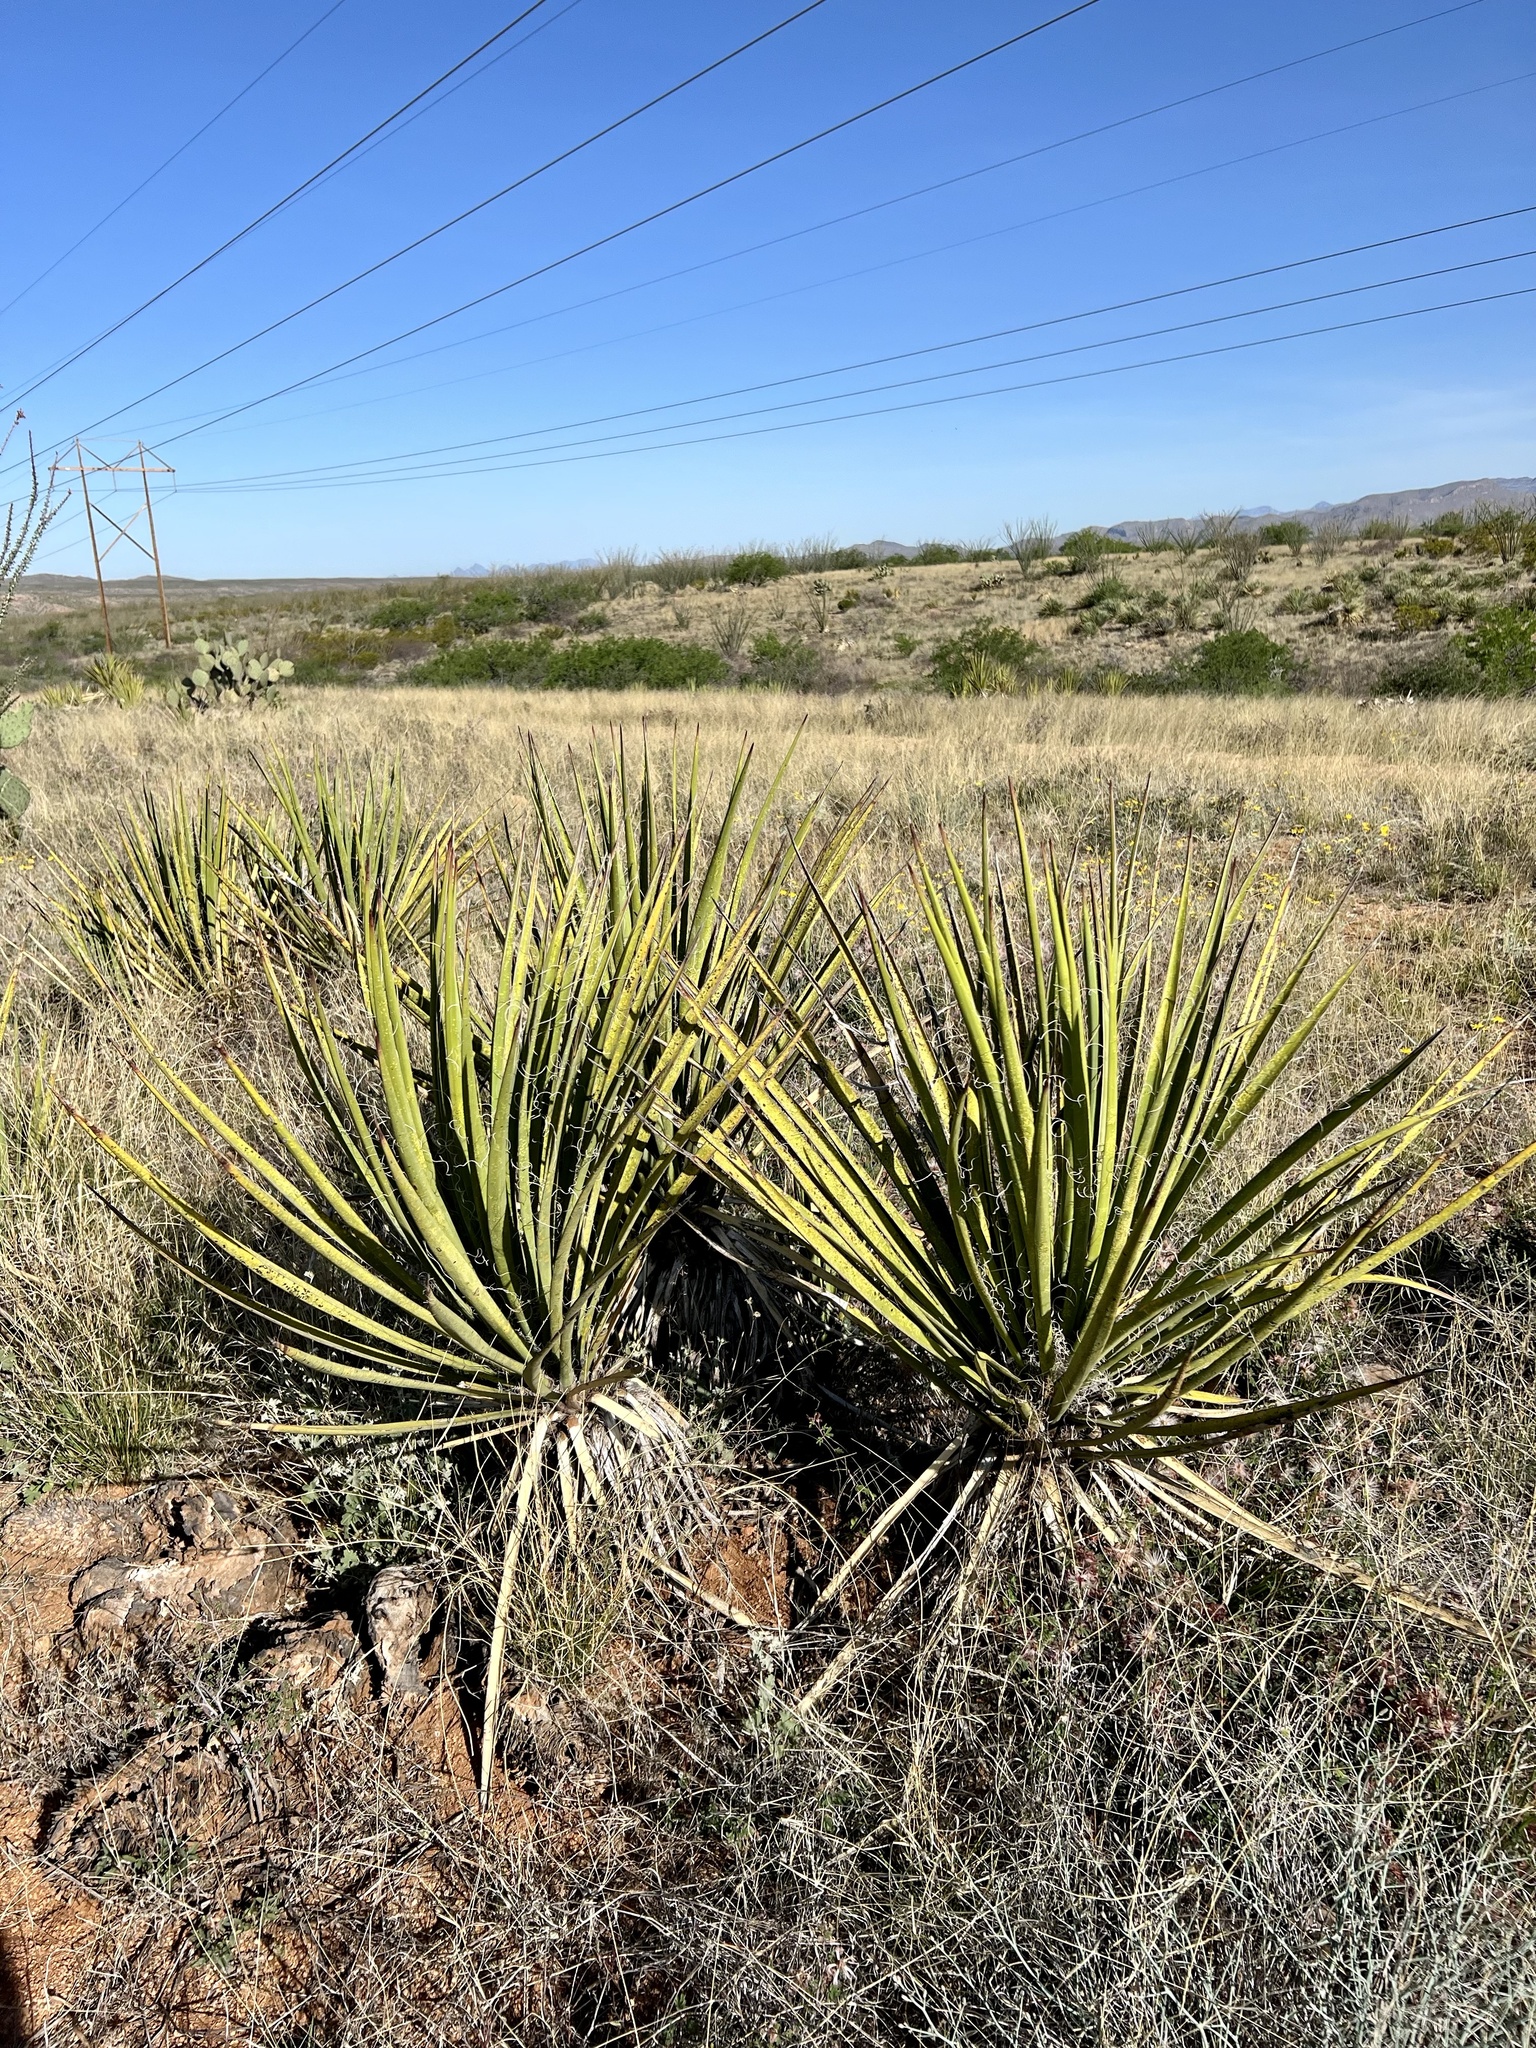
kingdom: Plantae
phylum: Tracheophyta
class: Liliopsida
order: Asparagales
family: Asparagaceae
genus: Yucca
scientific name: Yucca baccata
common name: Banana yucca
